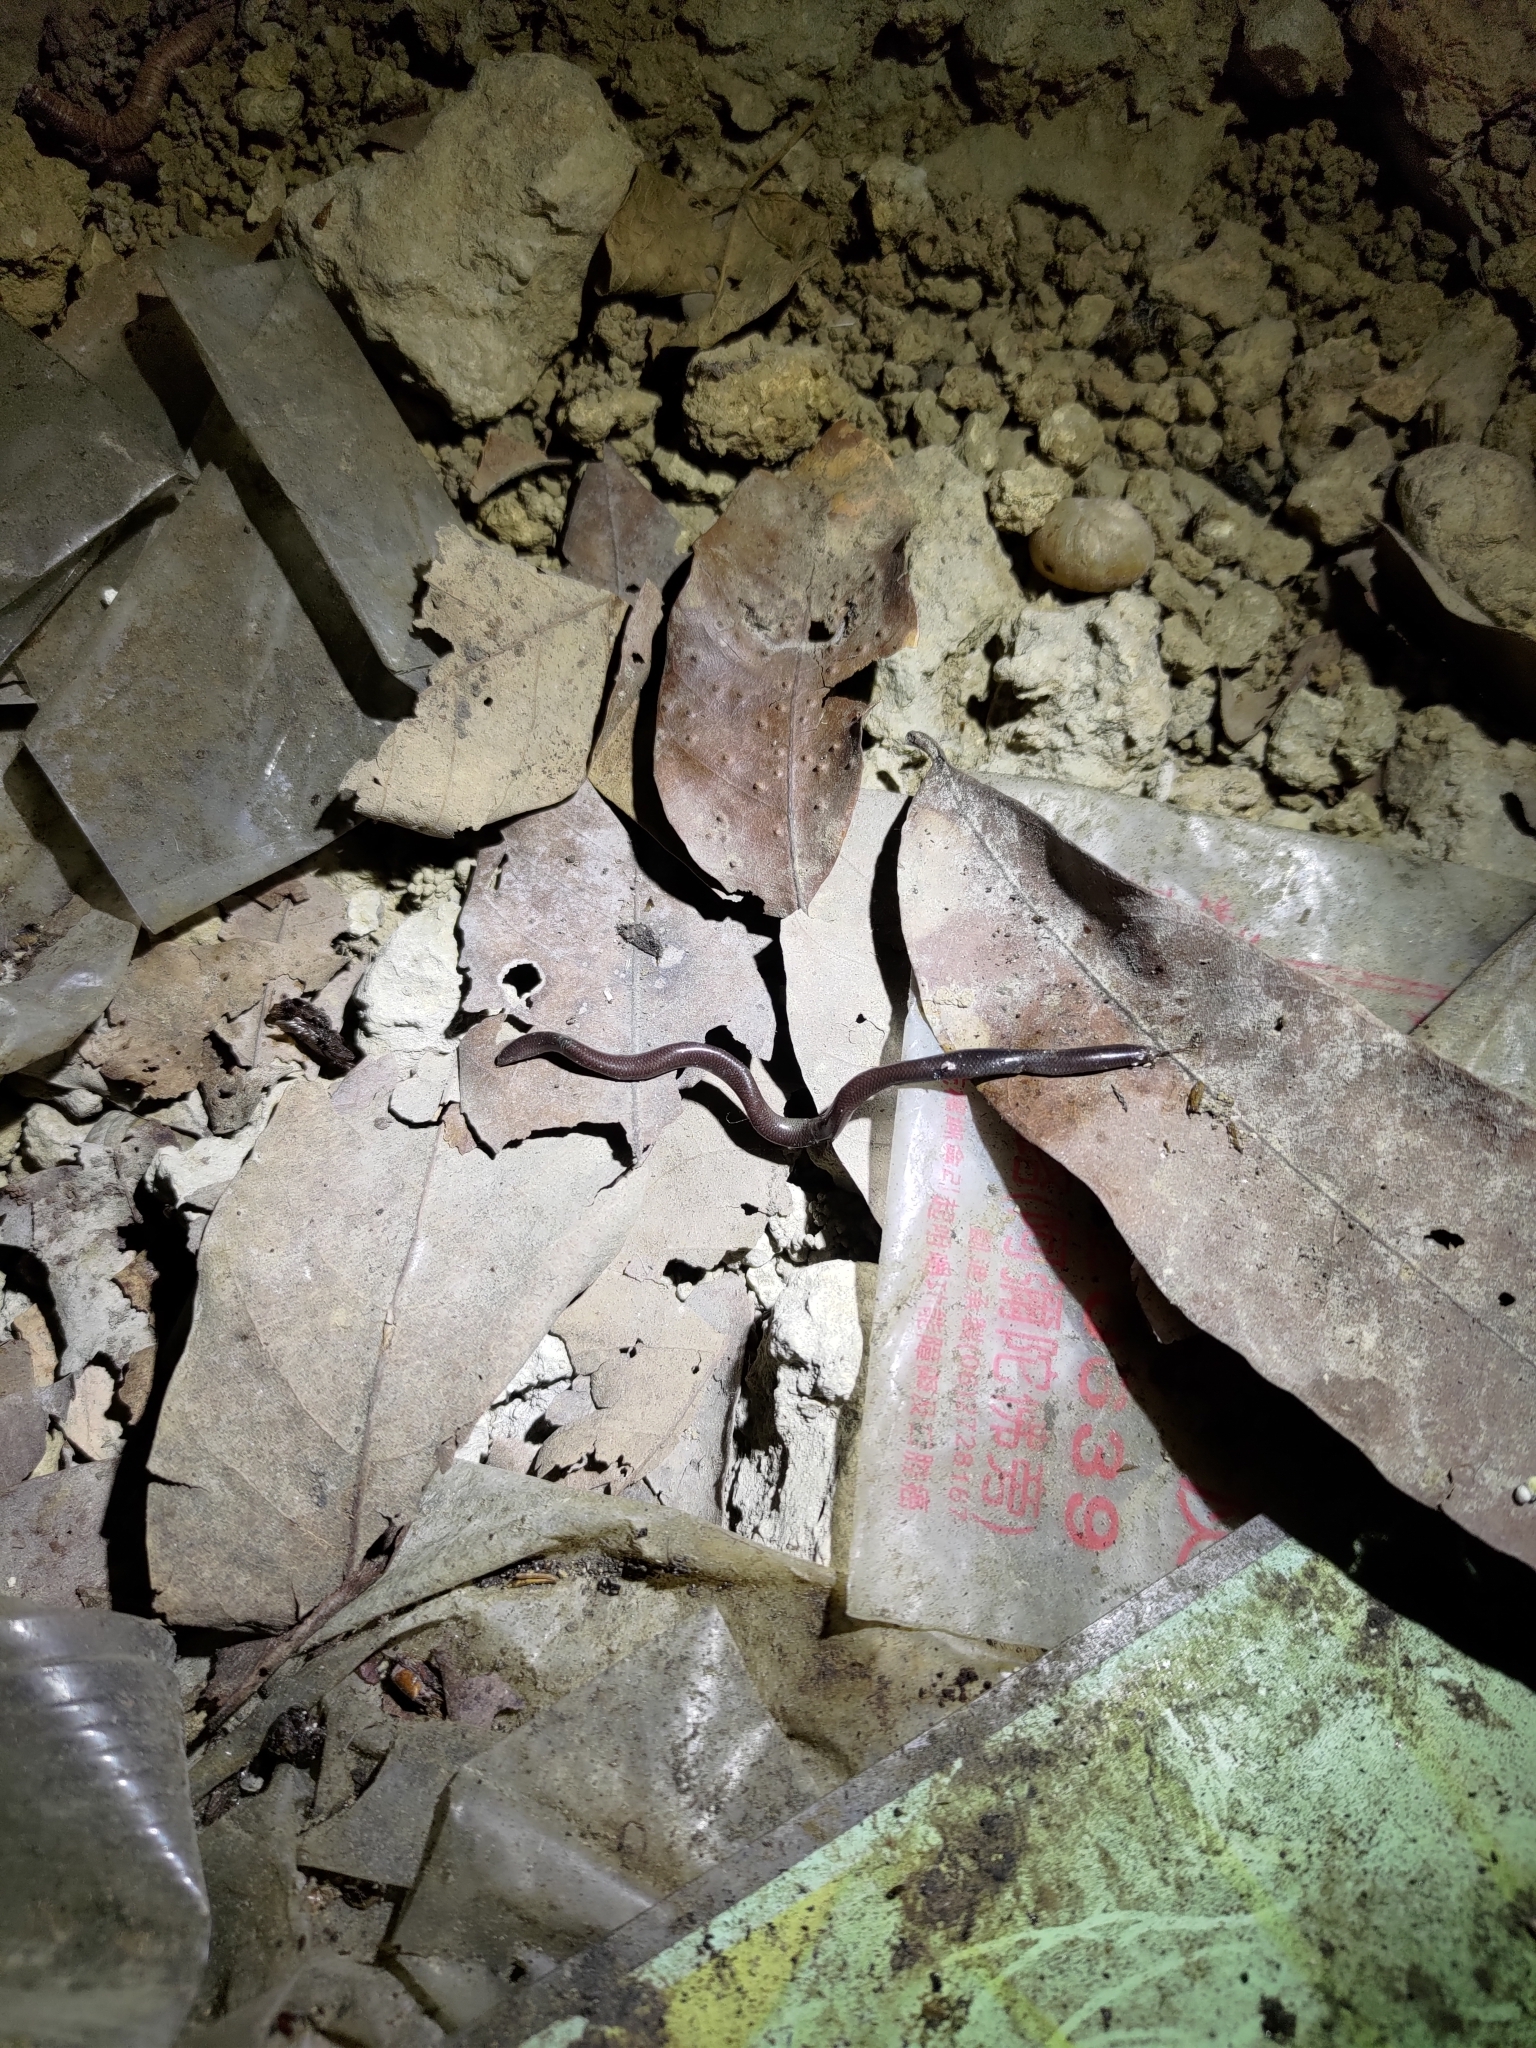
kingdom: Animalia
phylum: Chordata
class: Squamata
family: Typhlopidae
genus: Indotyphlops
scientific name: Indotyphlops braminus
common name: Brahminy blindsnake
